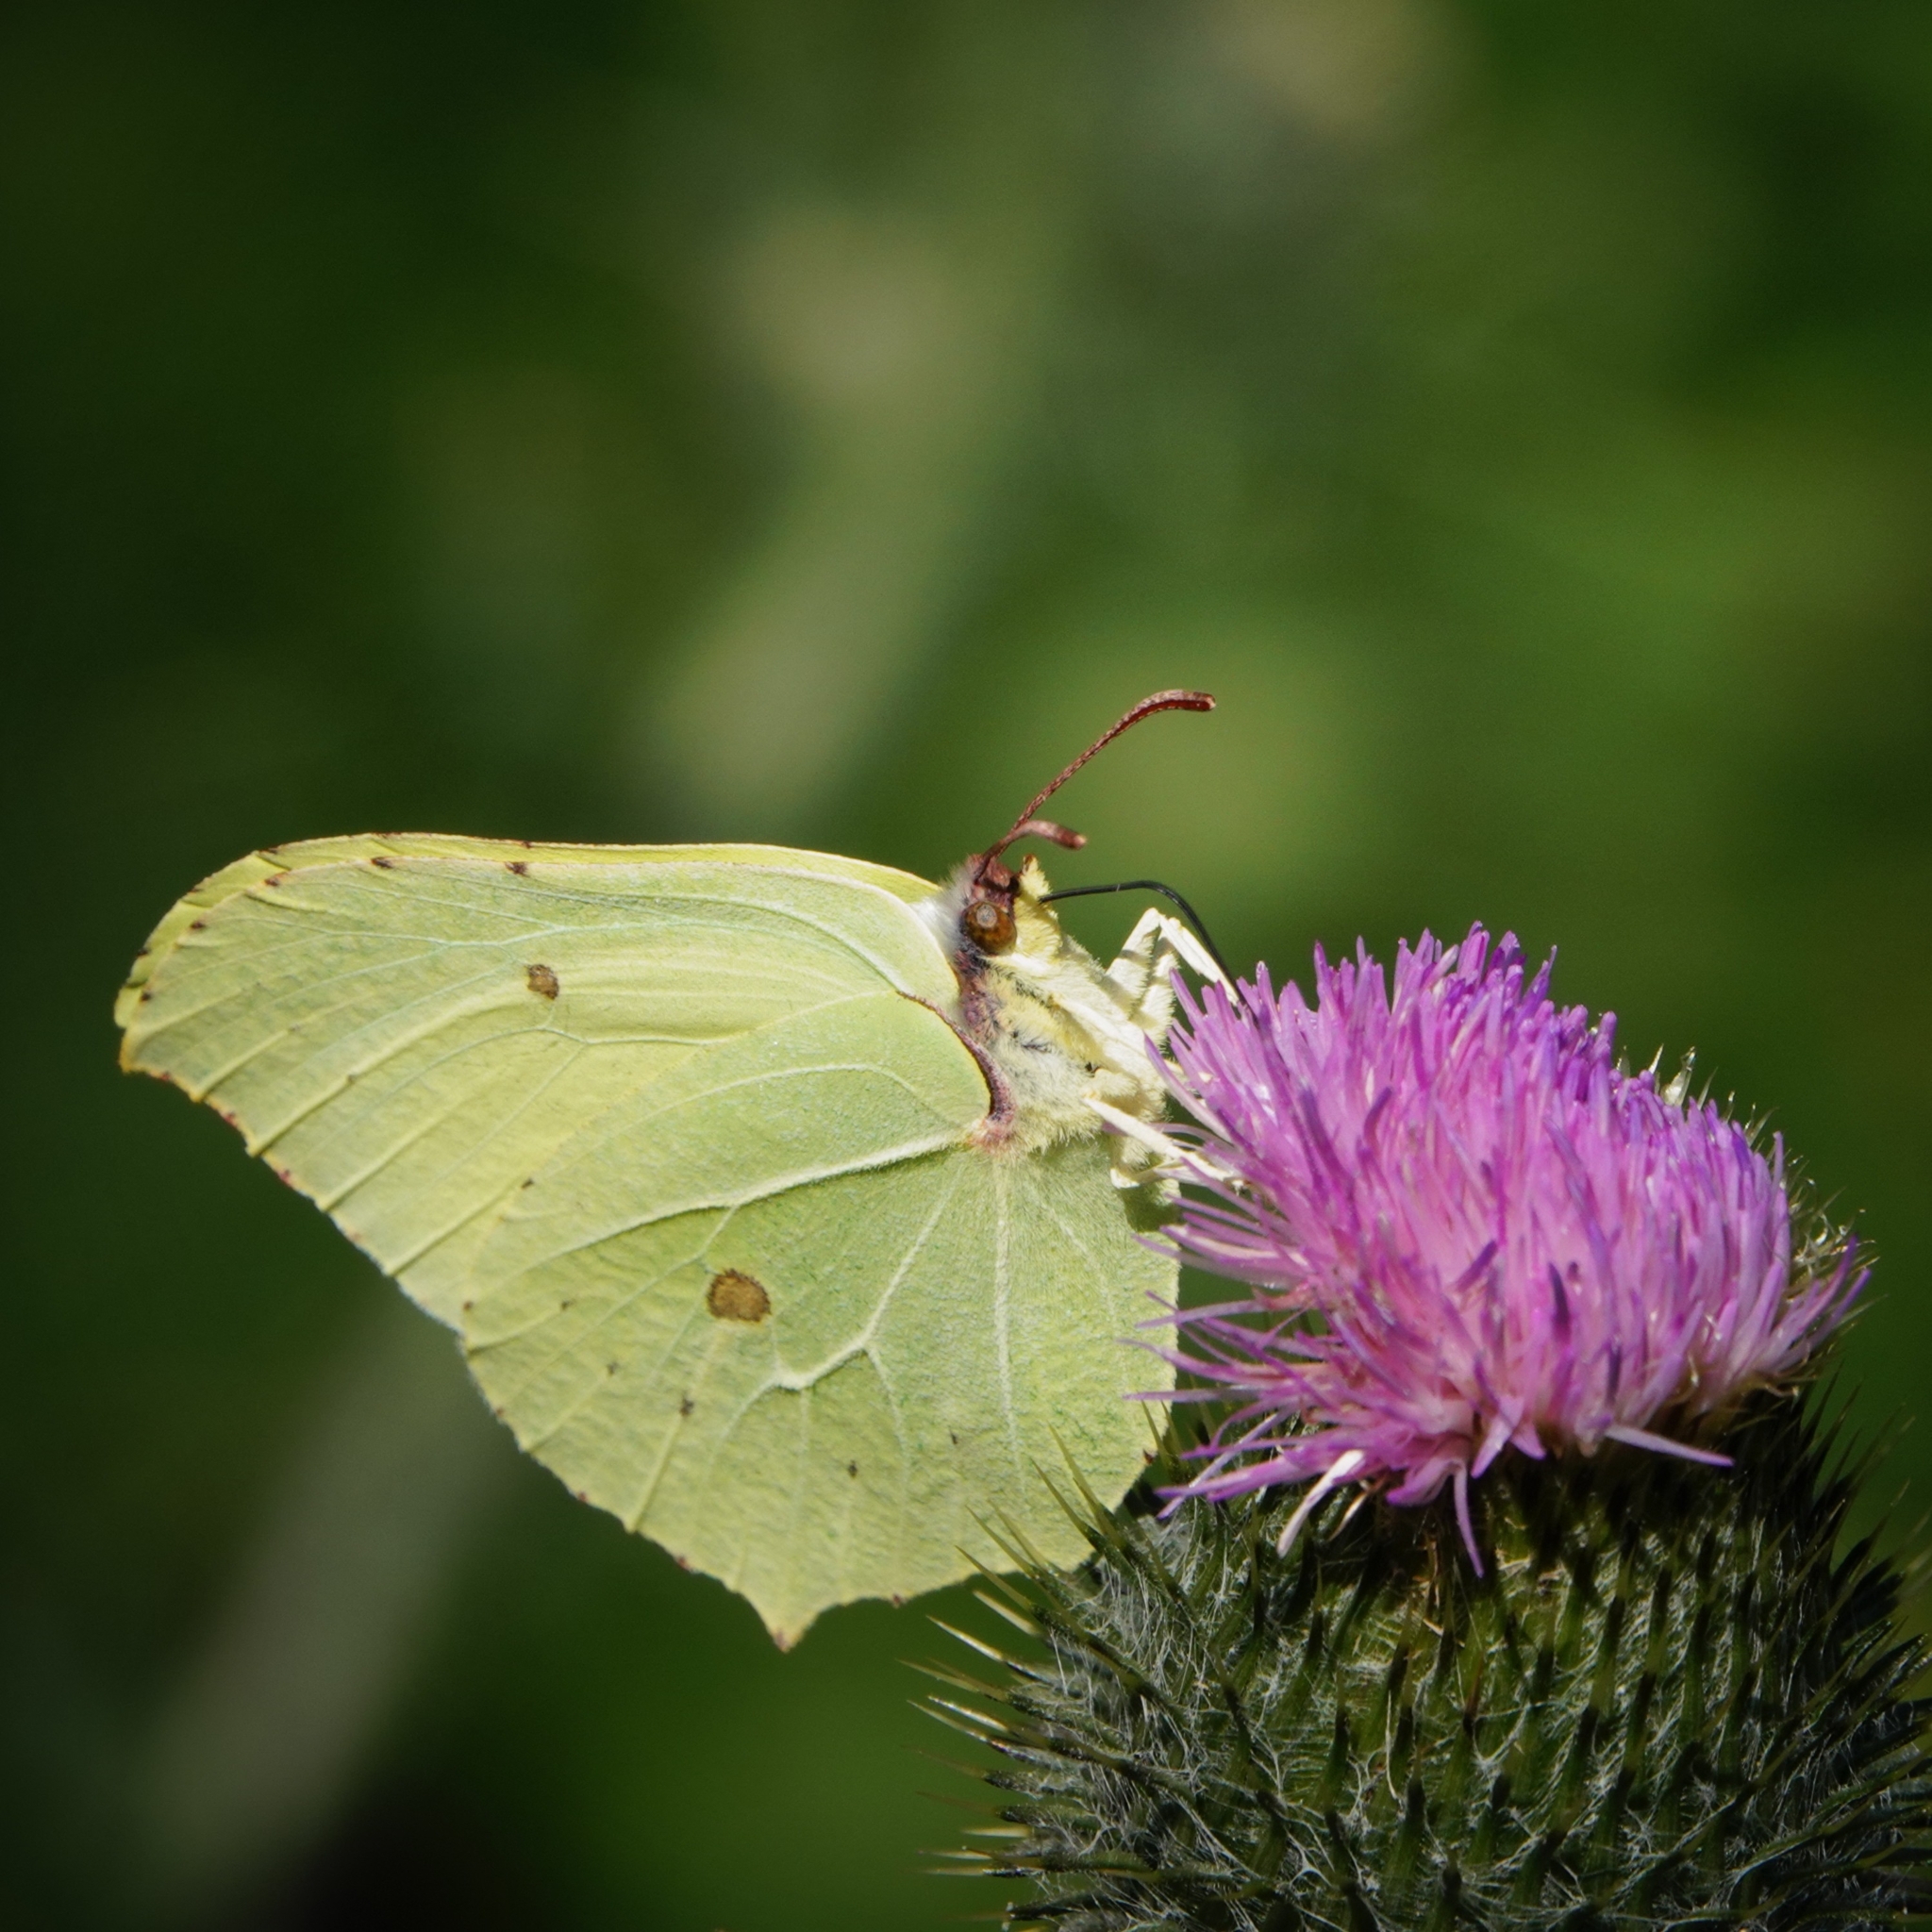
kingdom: Animalia
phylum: Arthropoda
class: Insecta
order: Lepidoptera
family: Pieridae
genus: Gonepteryx
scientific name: Gonepteryx rhamni
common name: Brimstone
